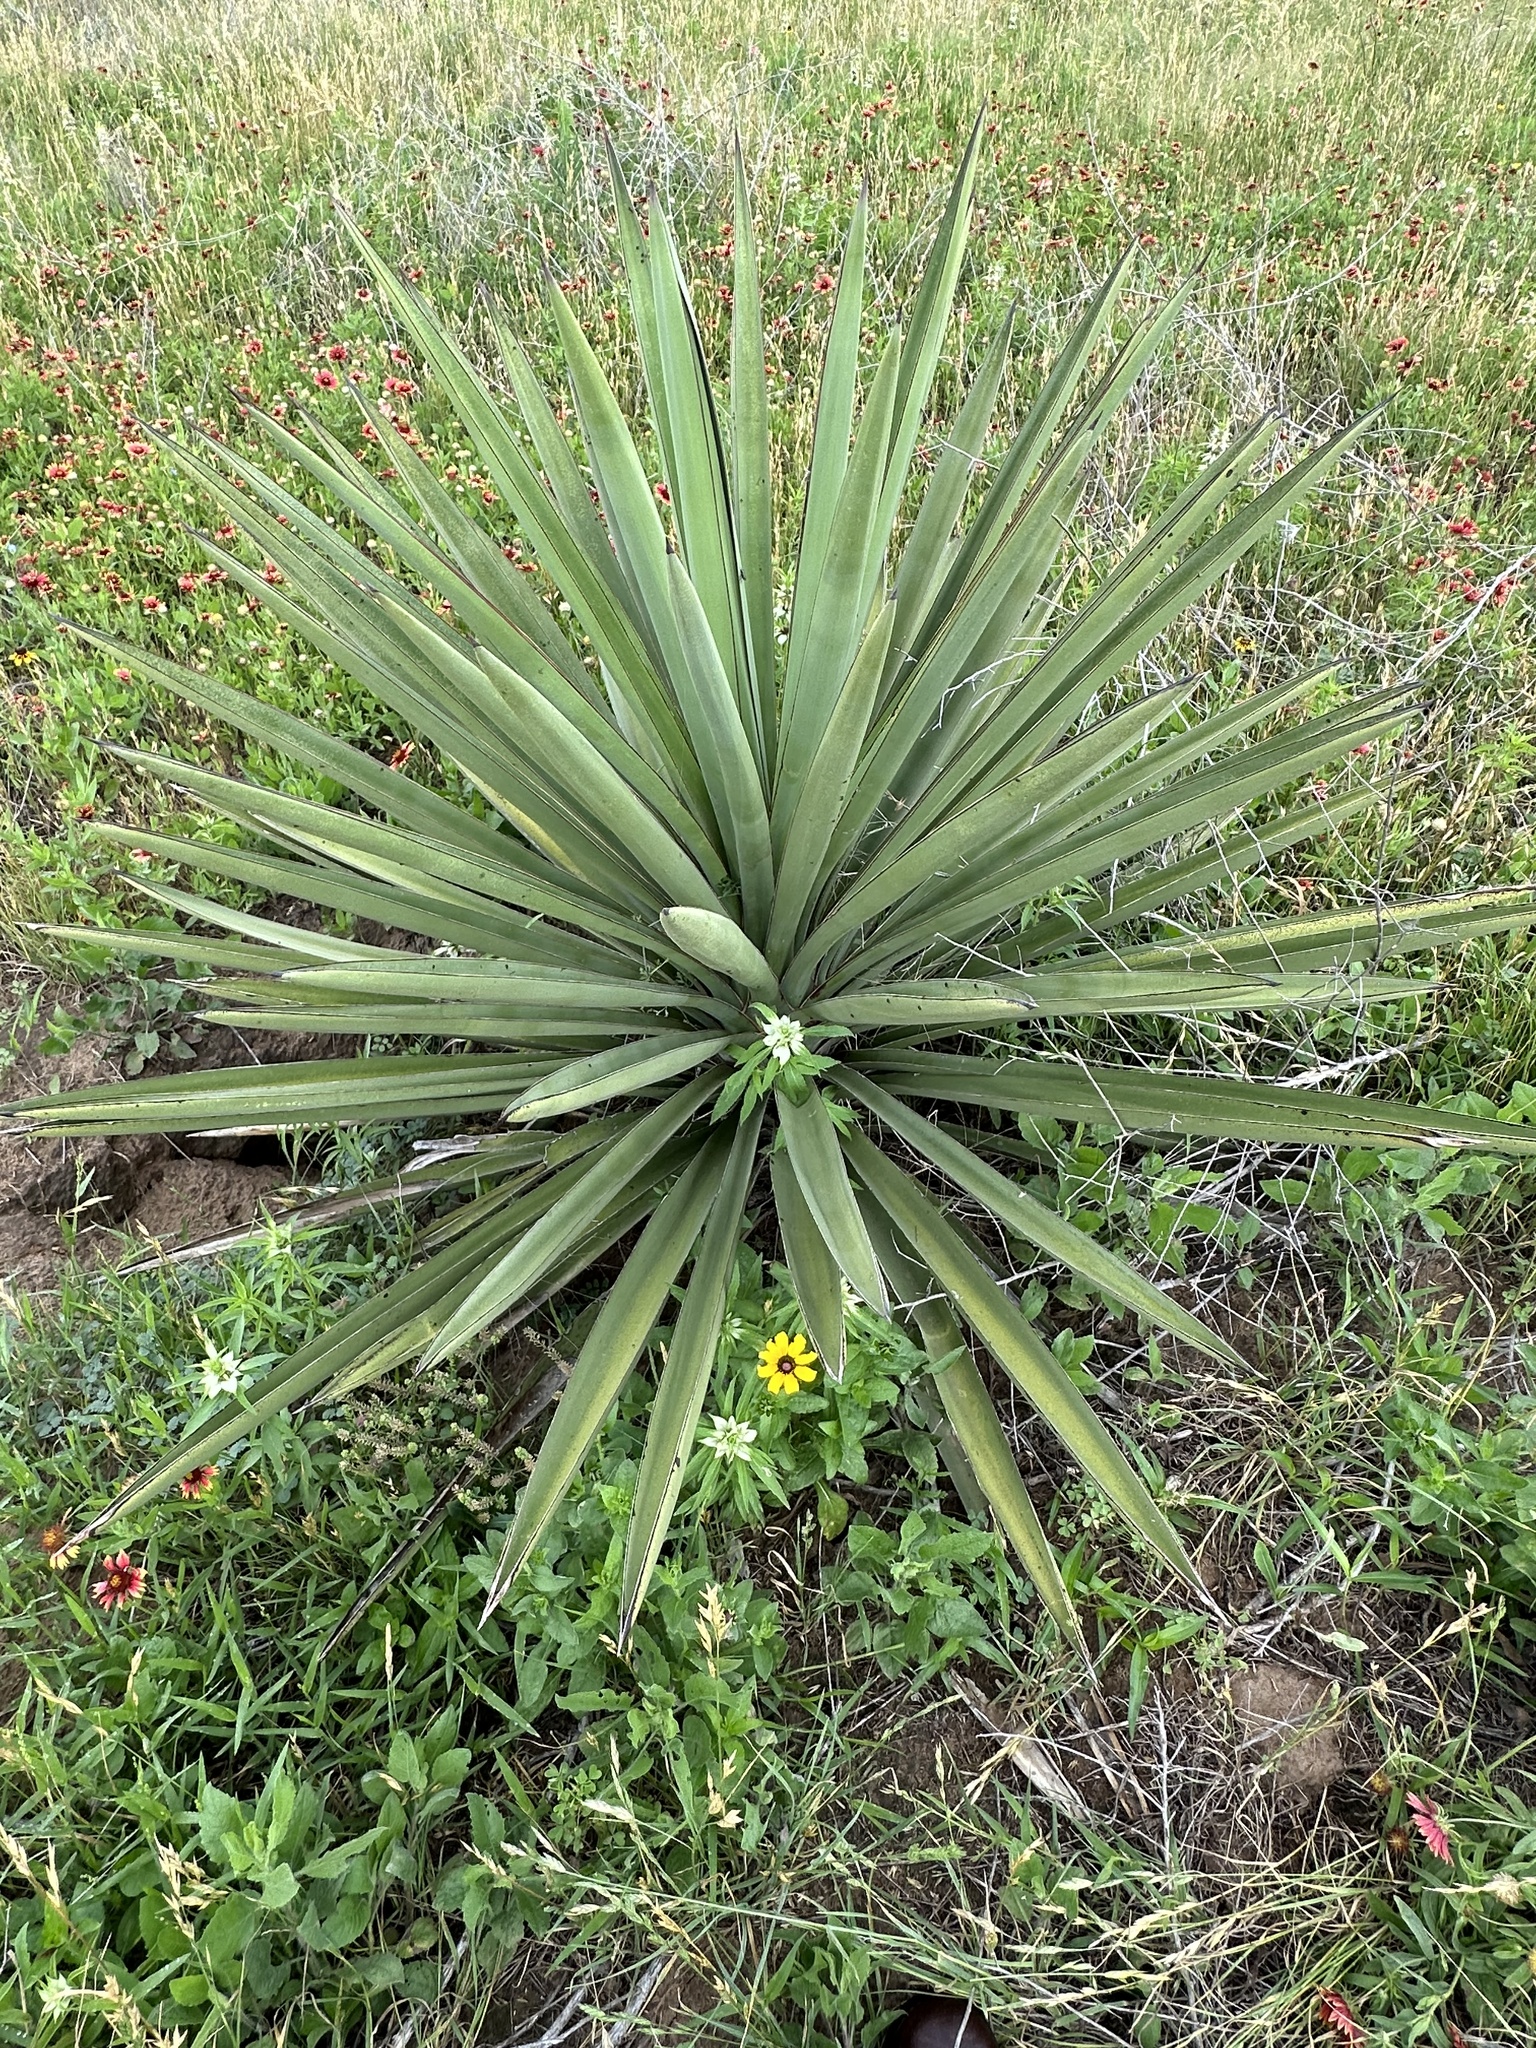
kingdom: Plantae
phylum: Tracheophyta
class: Liliopsida
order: Asparagales
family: Asparagaceae
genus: Yucca
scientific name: Yucca treculiana
